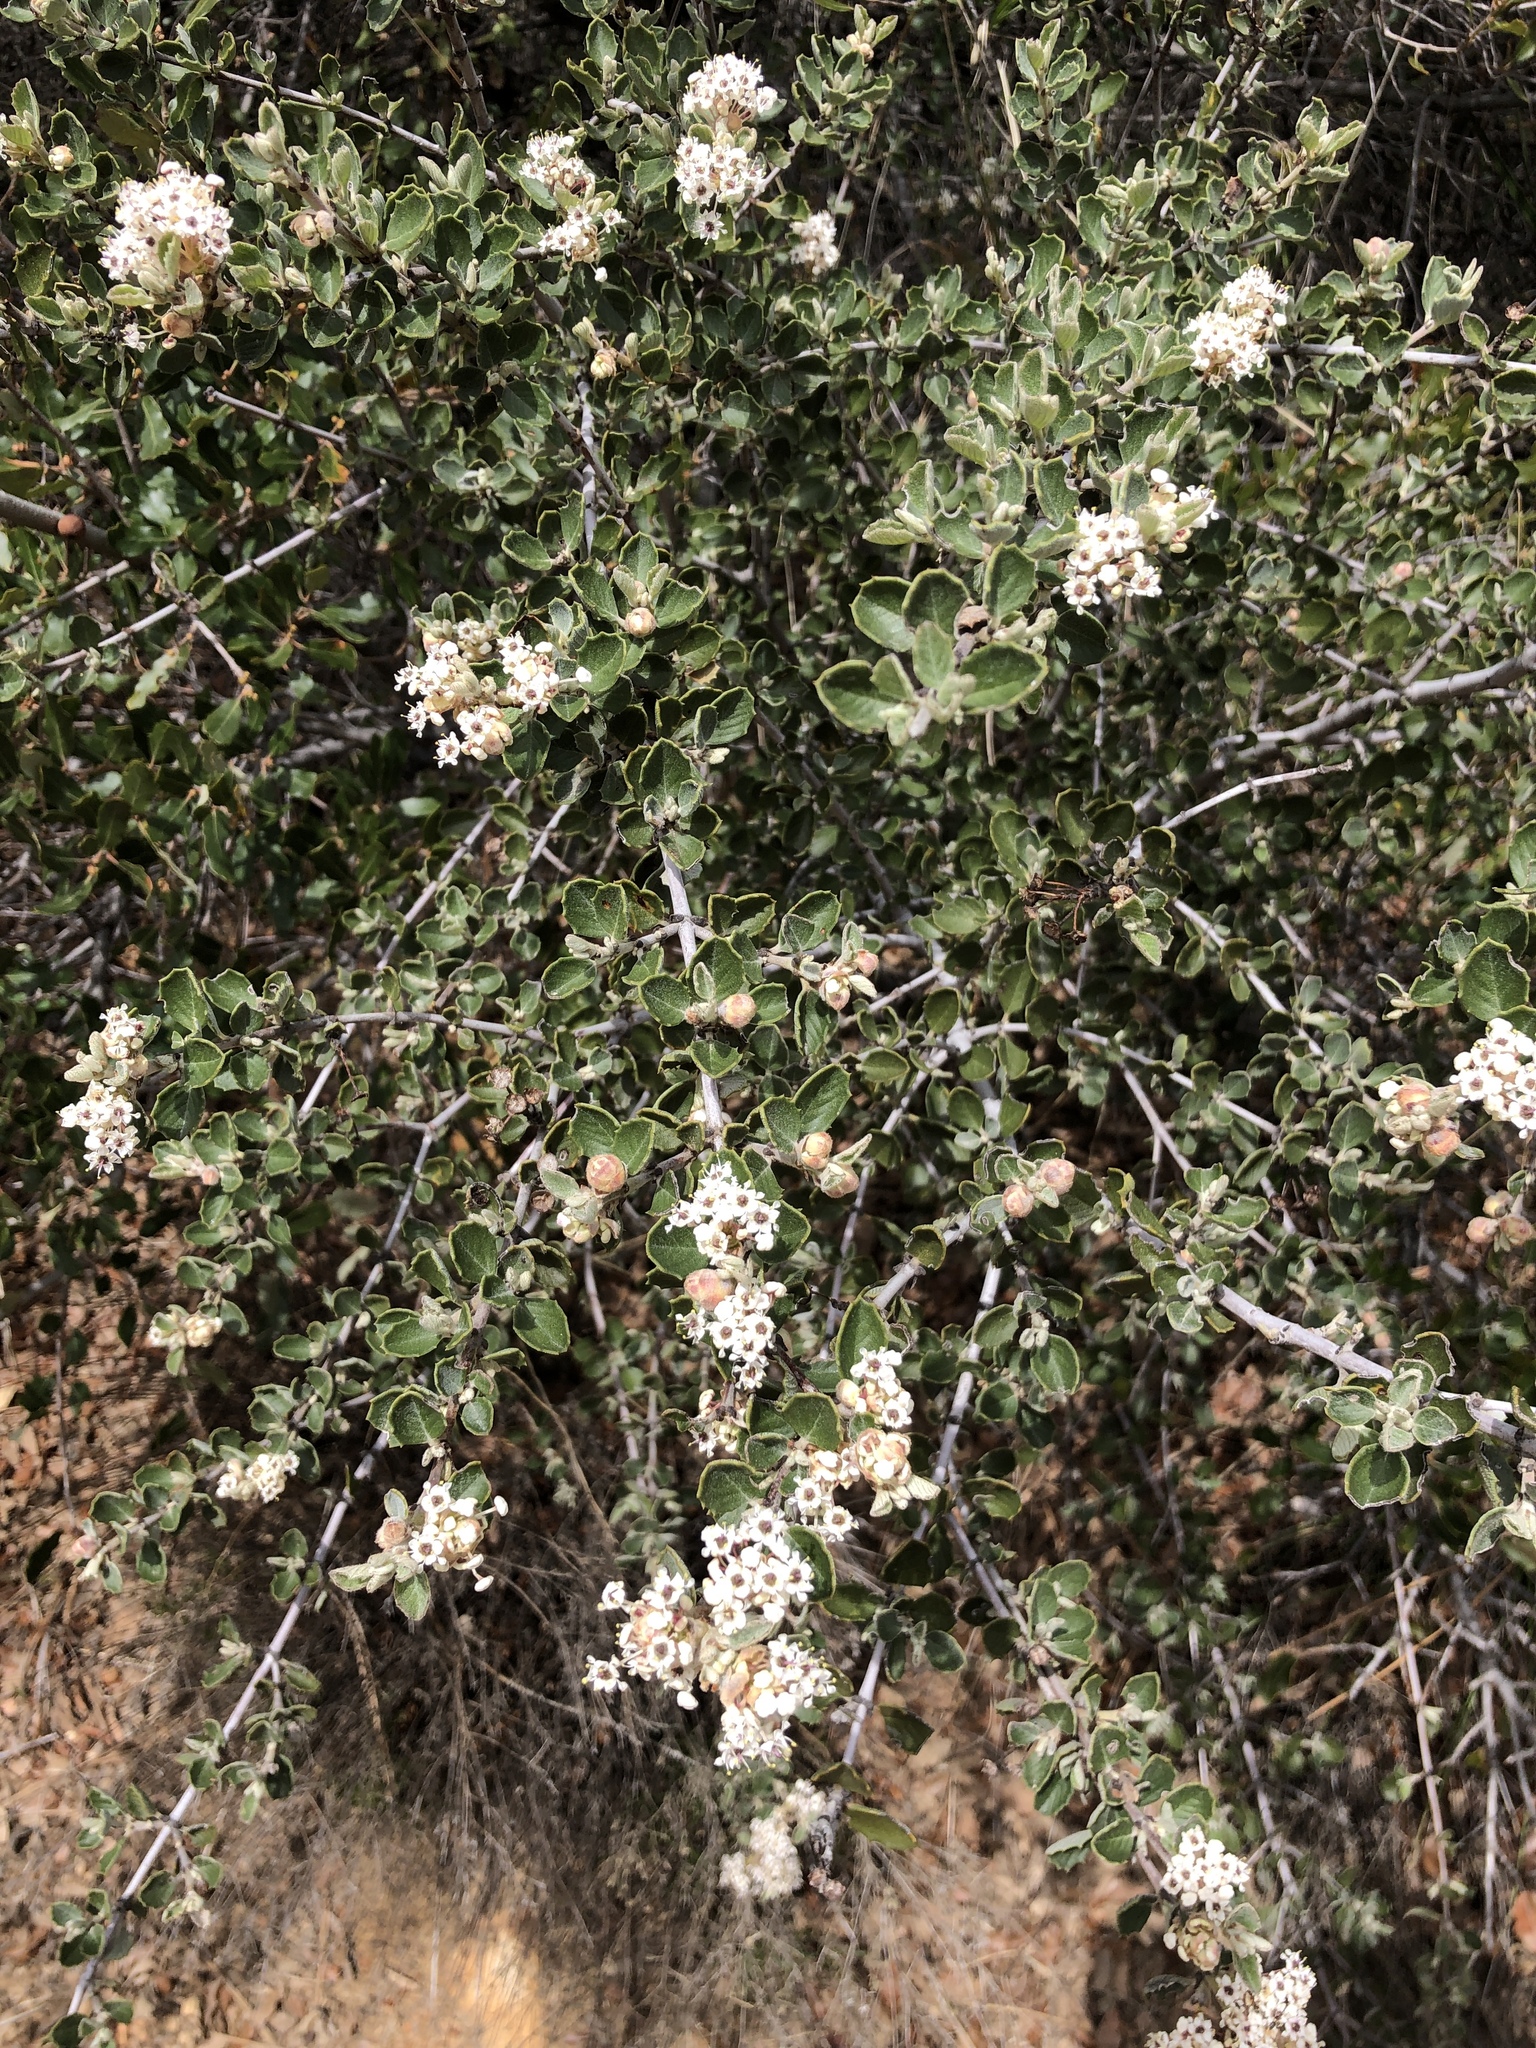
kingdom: Plantae
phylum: Tracheophyta
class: Magnoliopsida
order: Rosales
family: Rhamnaceae
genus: Ceanothus
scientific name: Ceanothus perplexans
